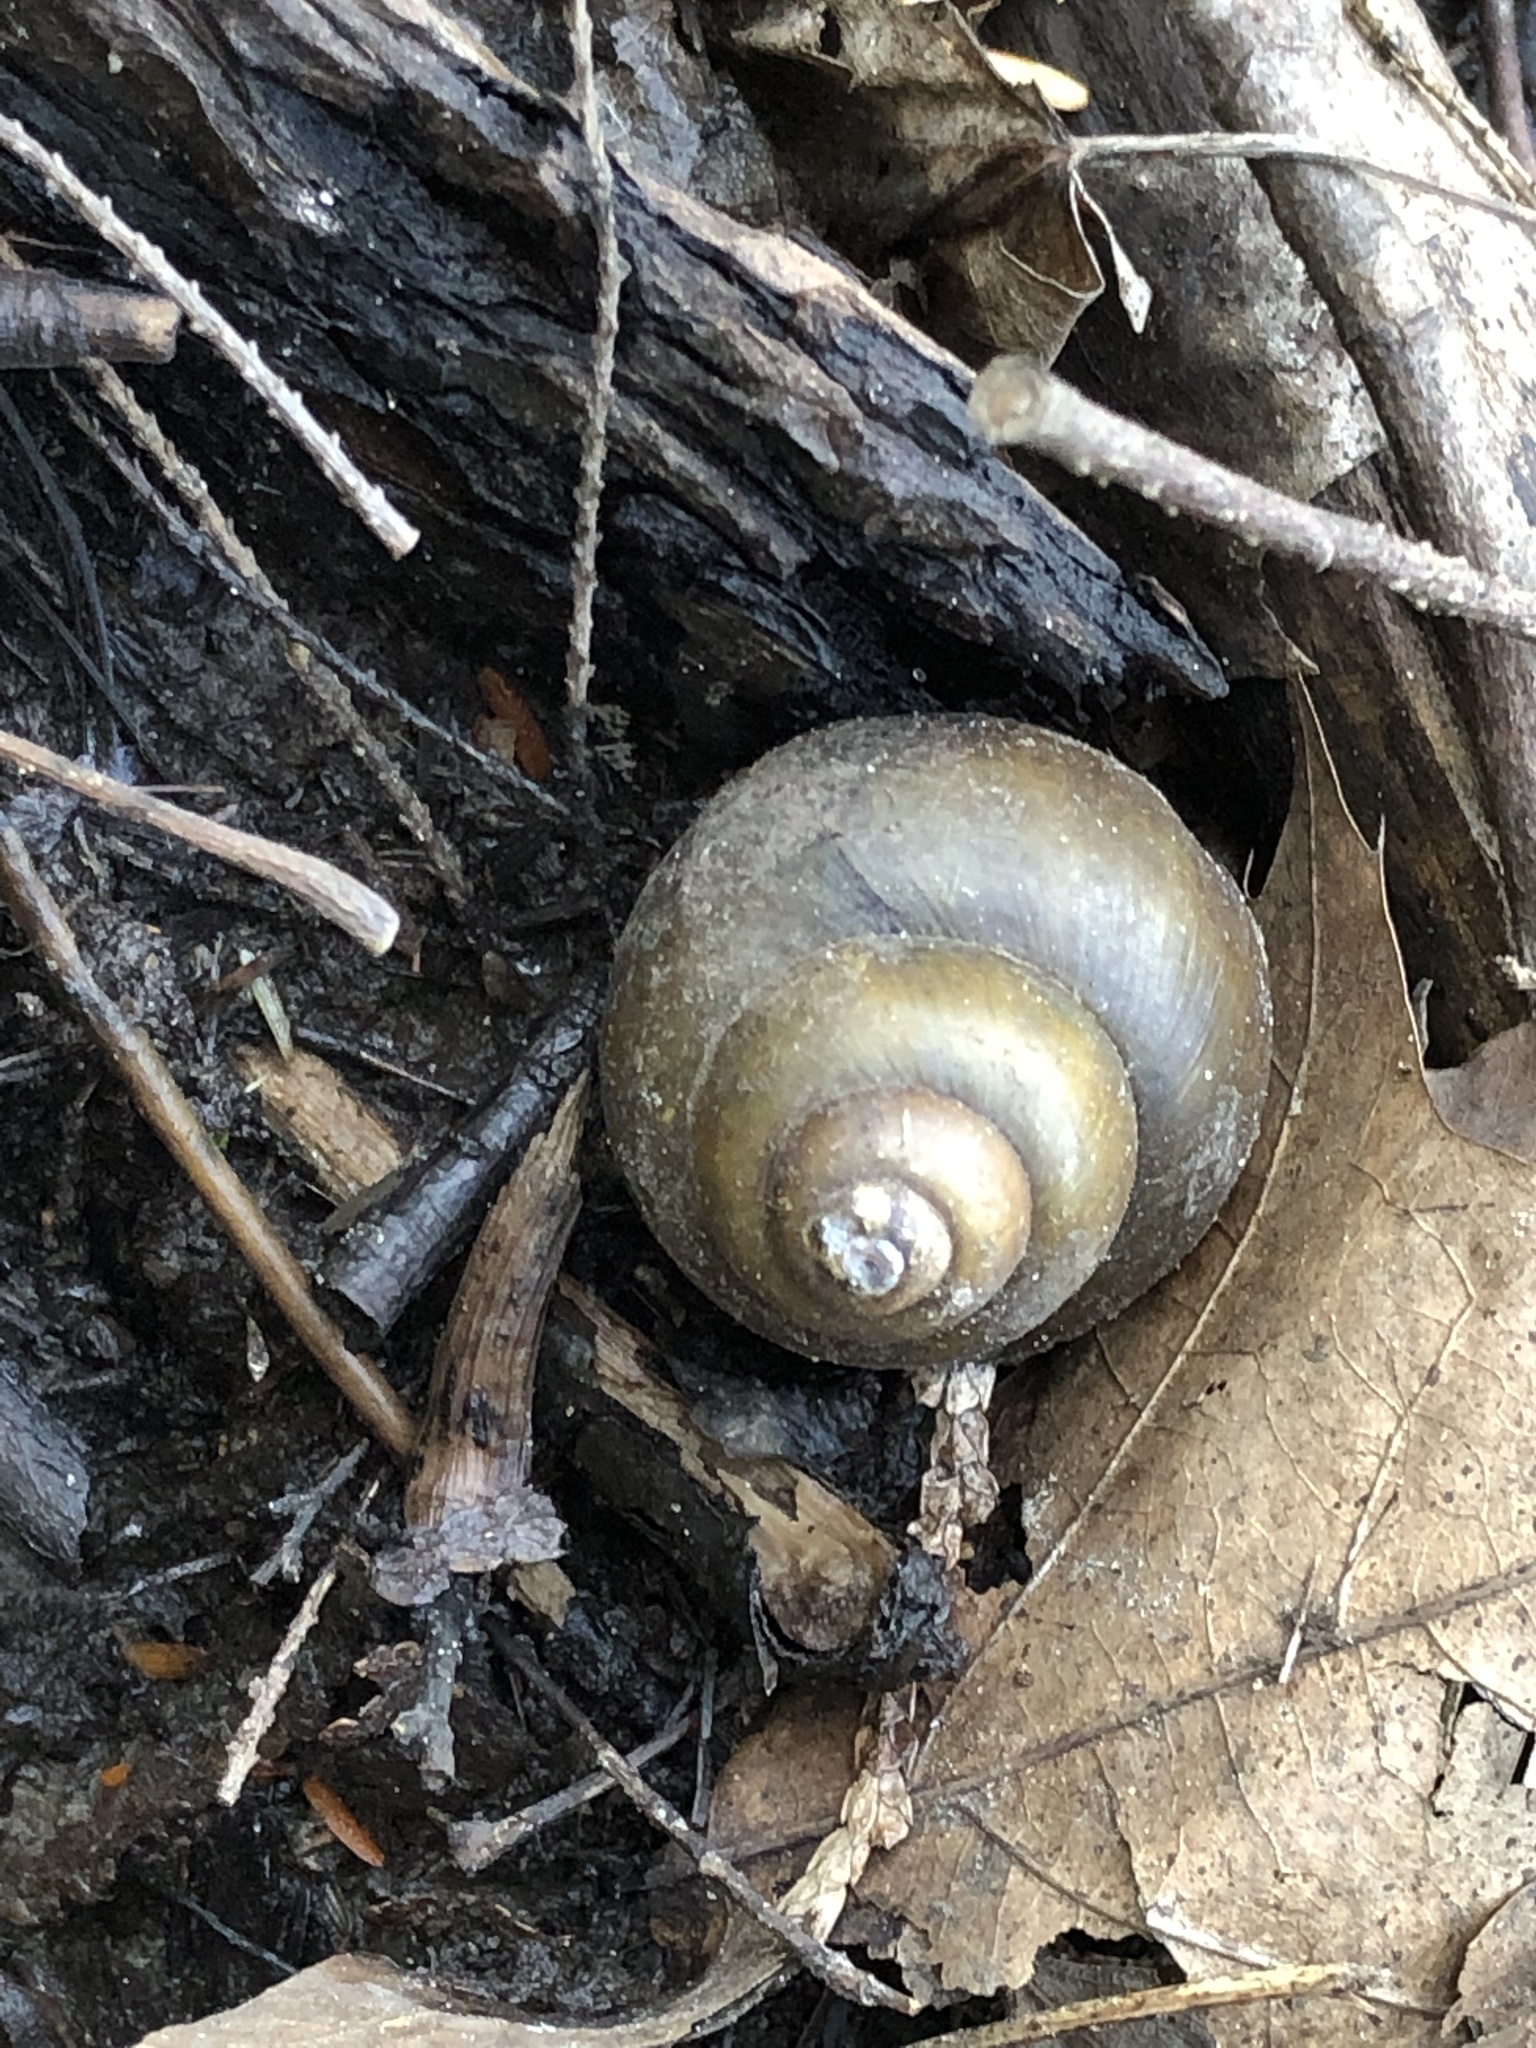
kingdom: Animalia
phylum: Mollusca
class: Gastropoda
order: Architaenioglossa
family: Viviparidae
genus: Cipangopaludina
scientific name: Cipangopaludina chinensis
